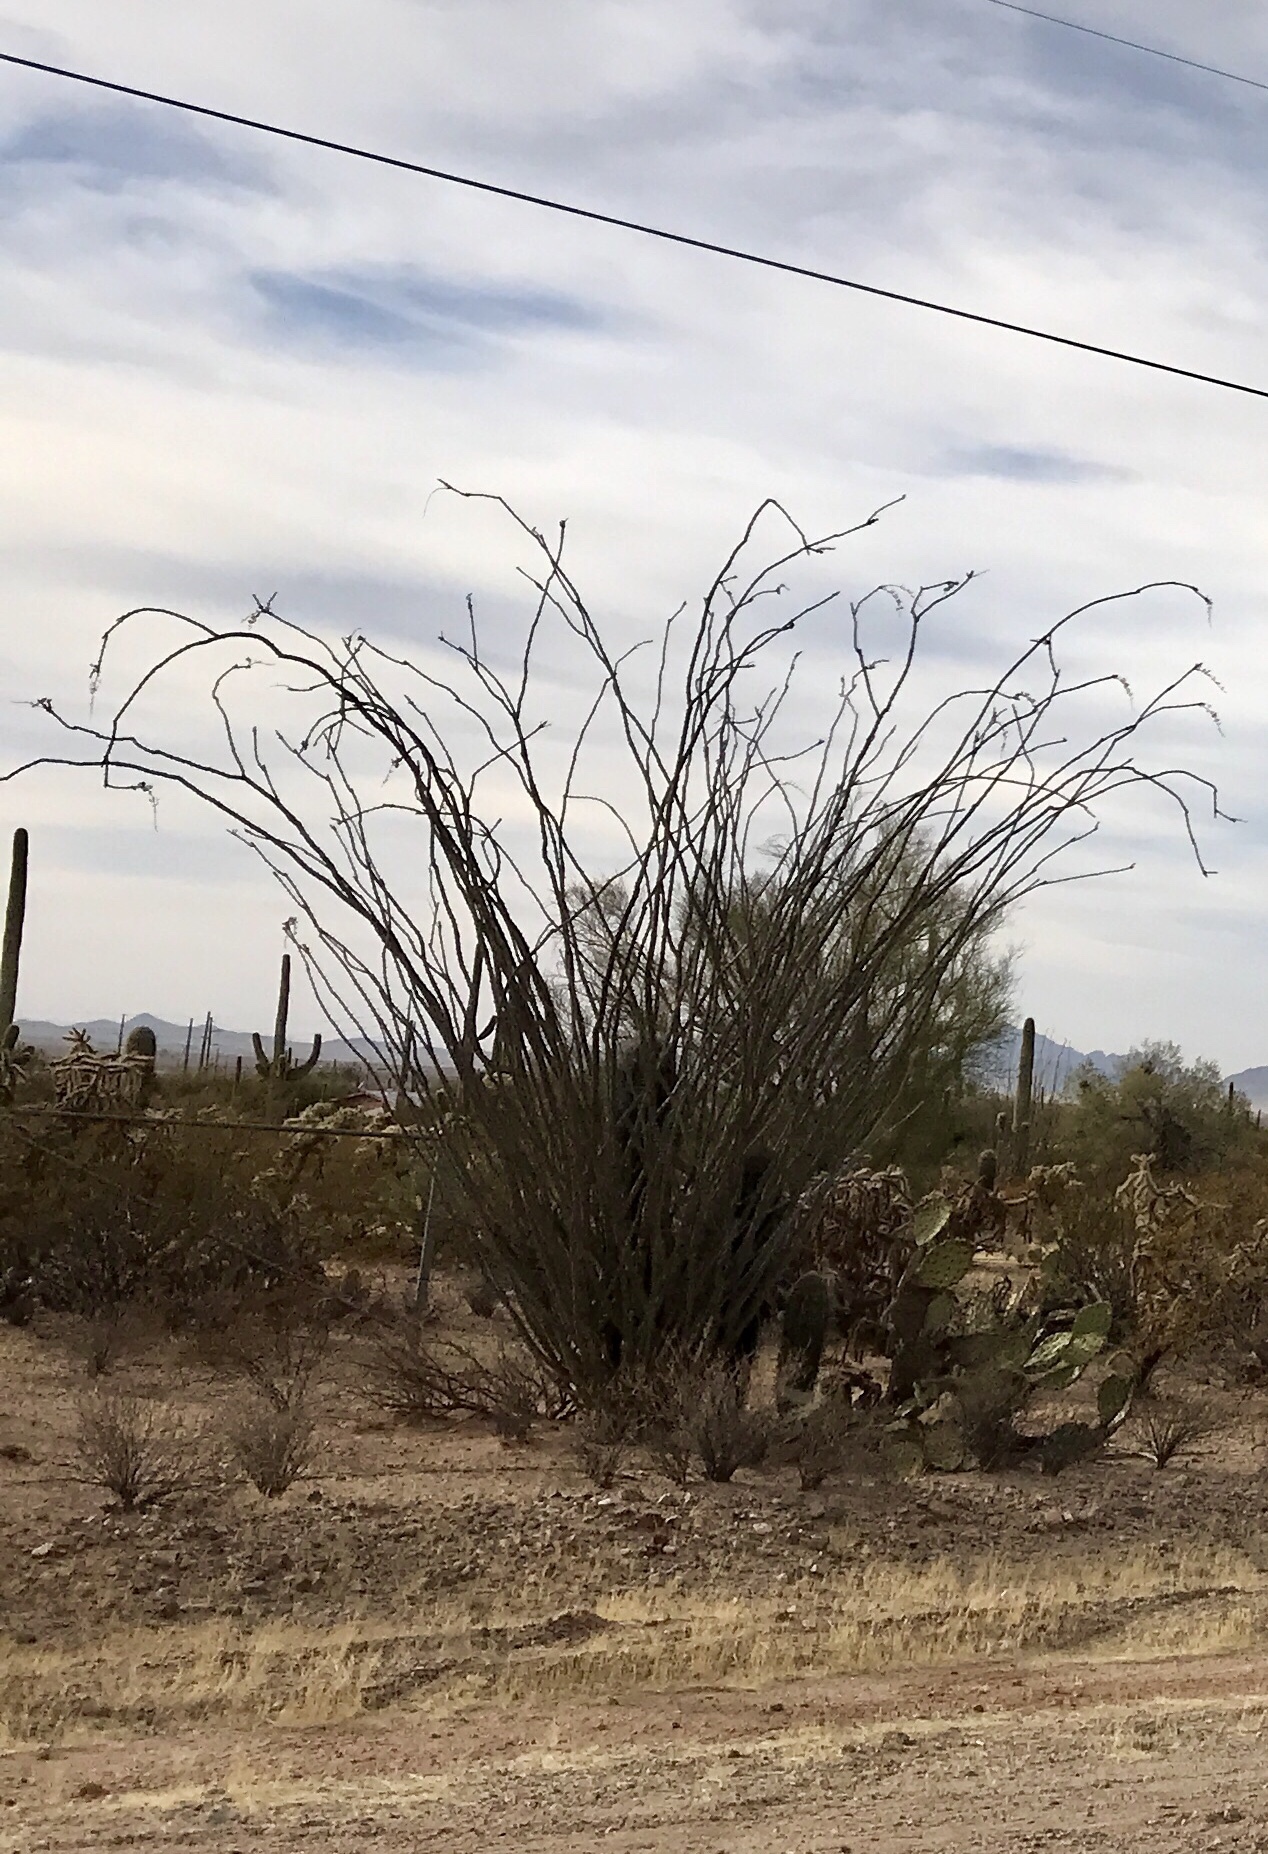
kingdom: Plantae
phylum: Tracheophyta
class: Magnoliopsida
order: Ericales
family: Fouquieriaceae
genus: Fouquieria
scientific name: Fouquieria splendens
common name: Vine-cactus
